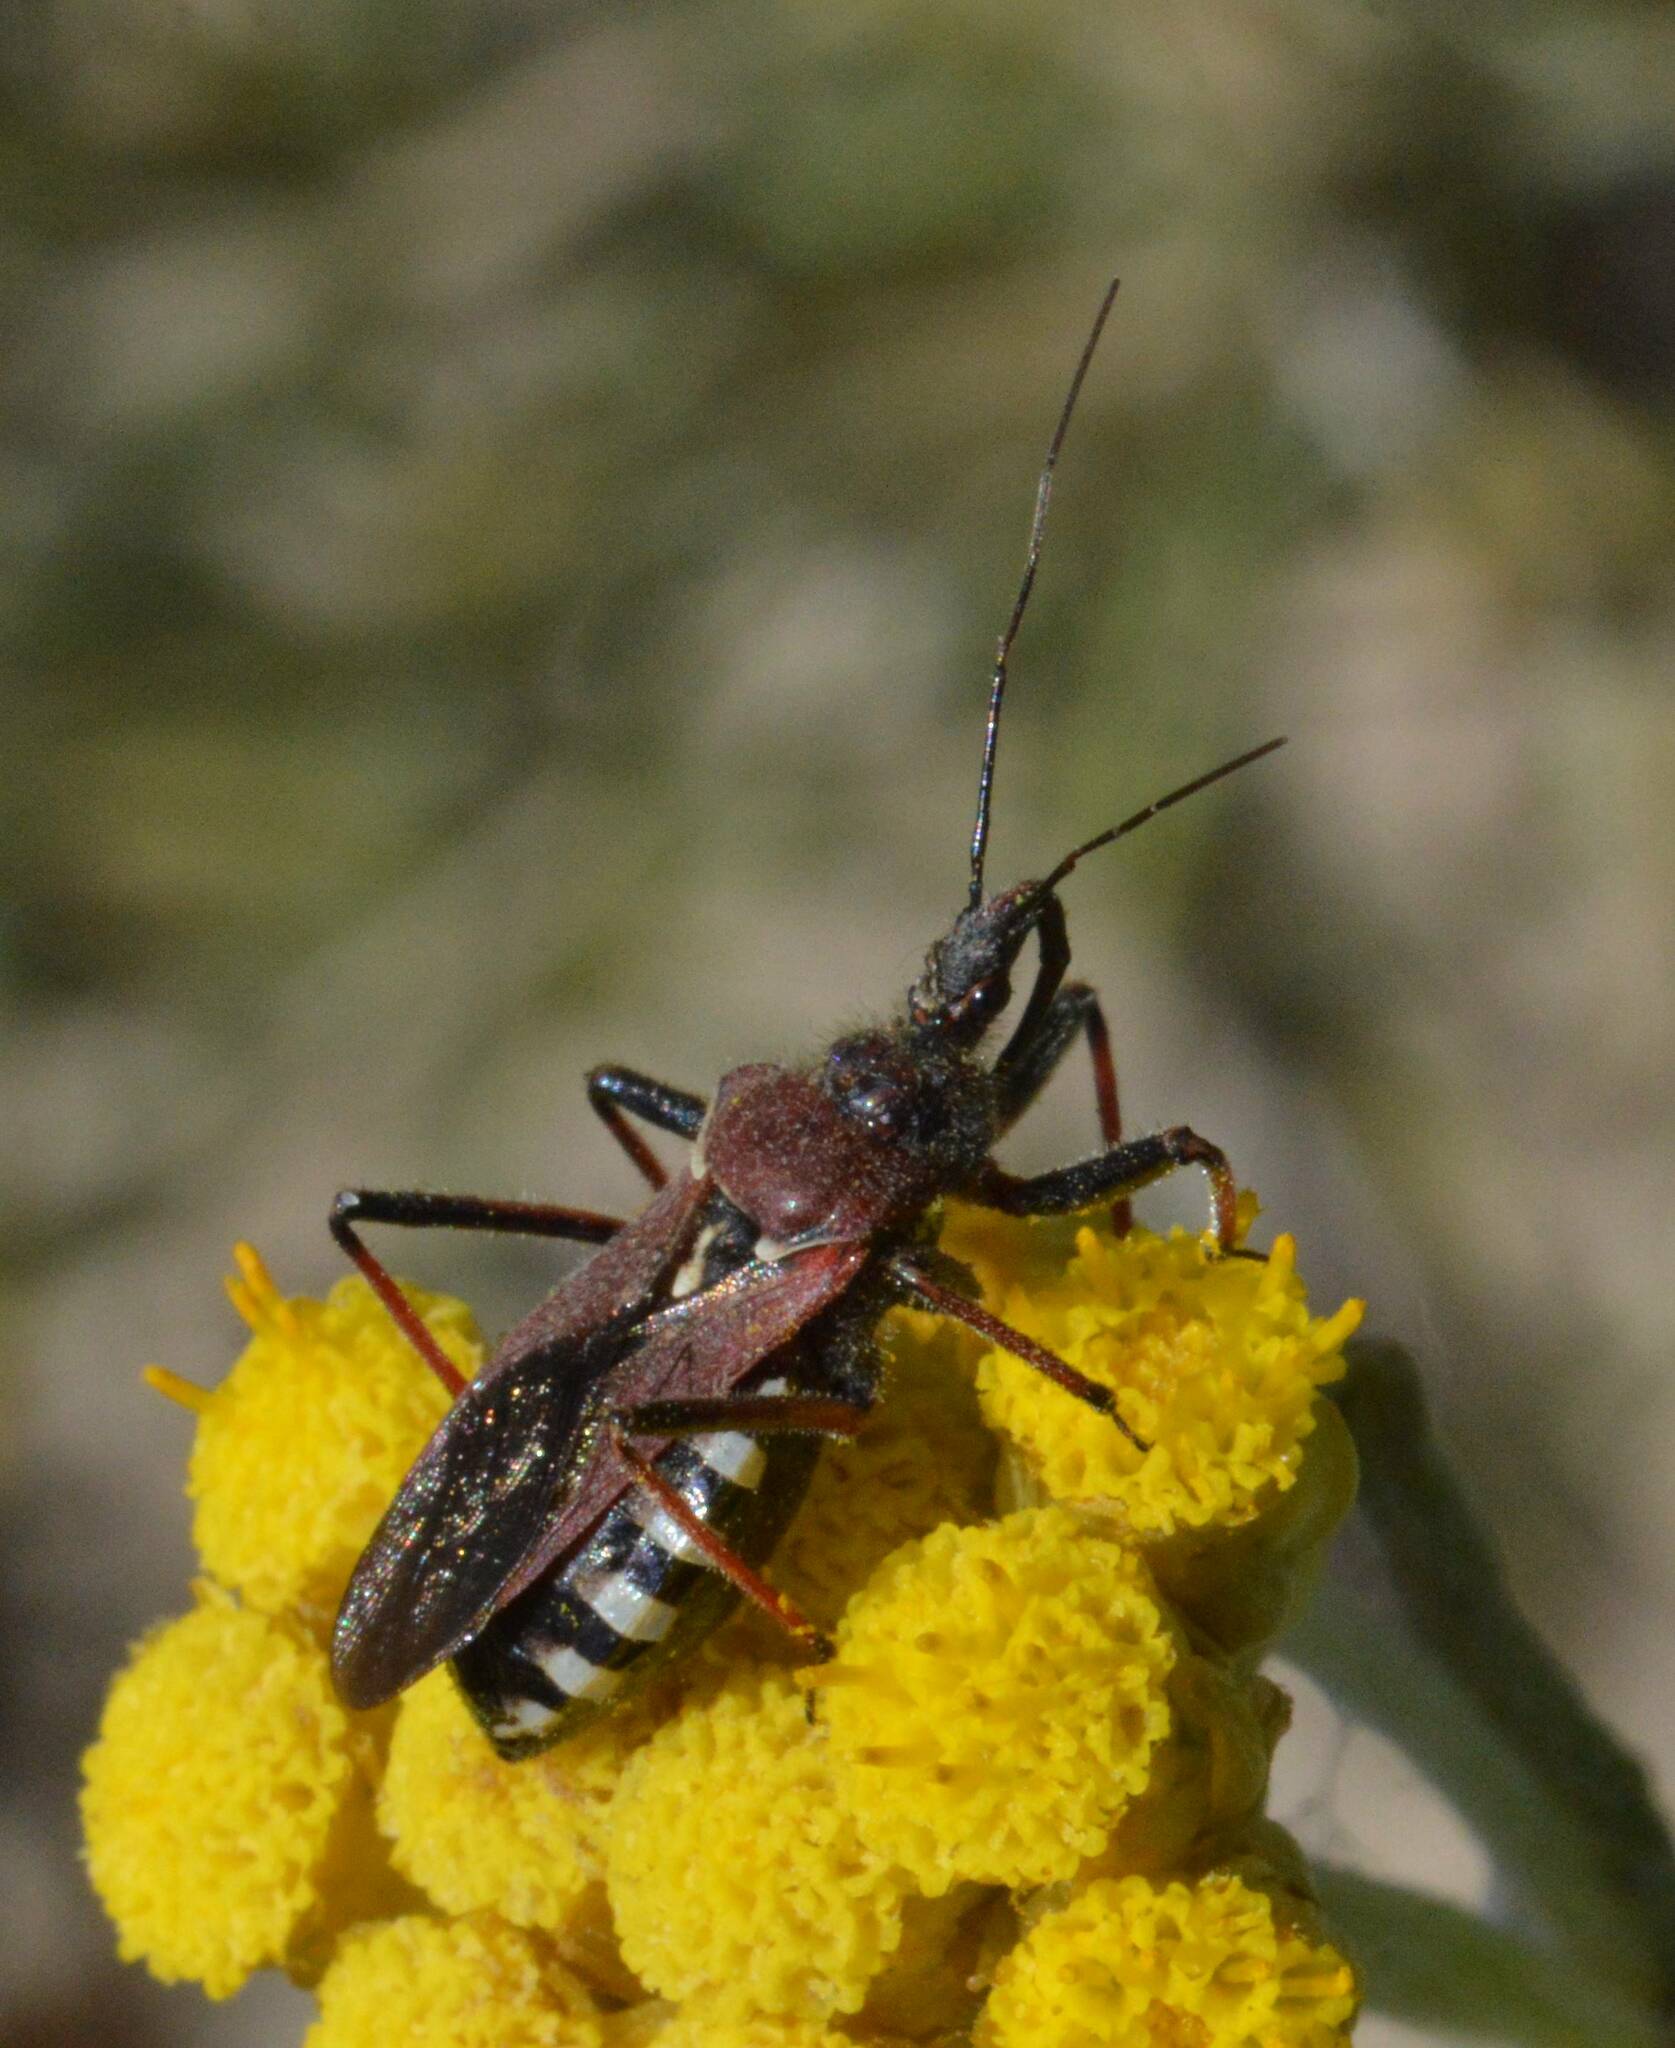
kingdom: Animalia
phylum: Arthropoda
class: Insecta
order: Hemiptera
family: Reduviidae
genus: Rhynocoris
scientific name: Rhynocoris erythropus
